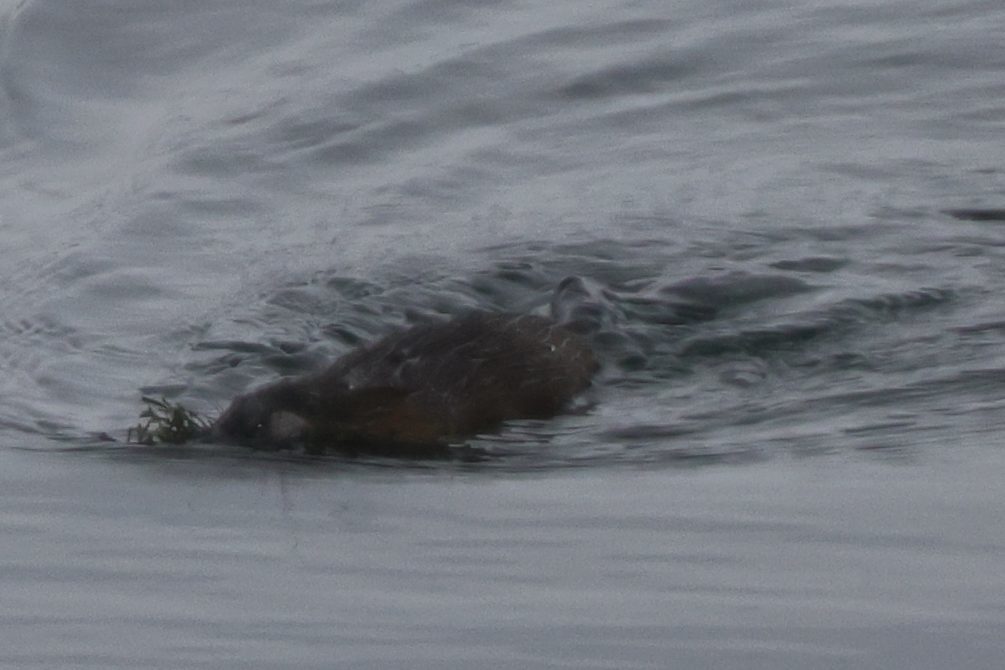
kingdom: Animalia
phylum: Chordata
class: Mammalia
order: Rodentia
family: Castoridae
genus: Castor
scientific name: Castor canadensis
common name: American beaver
